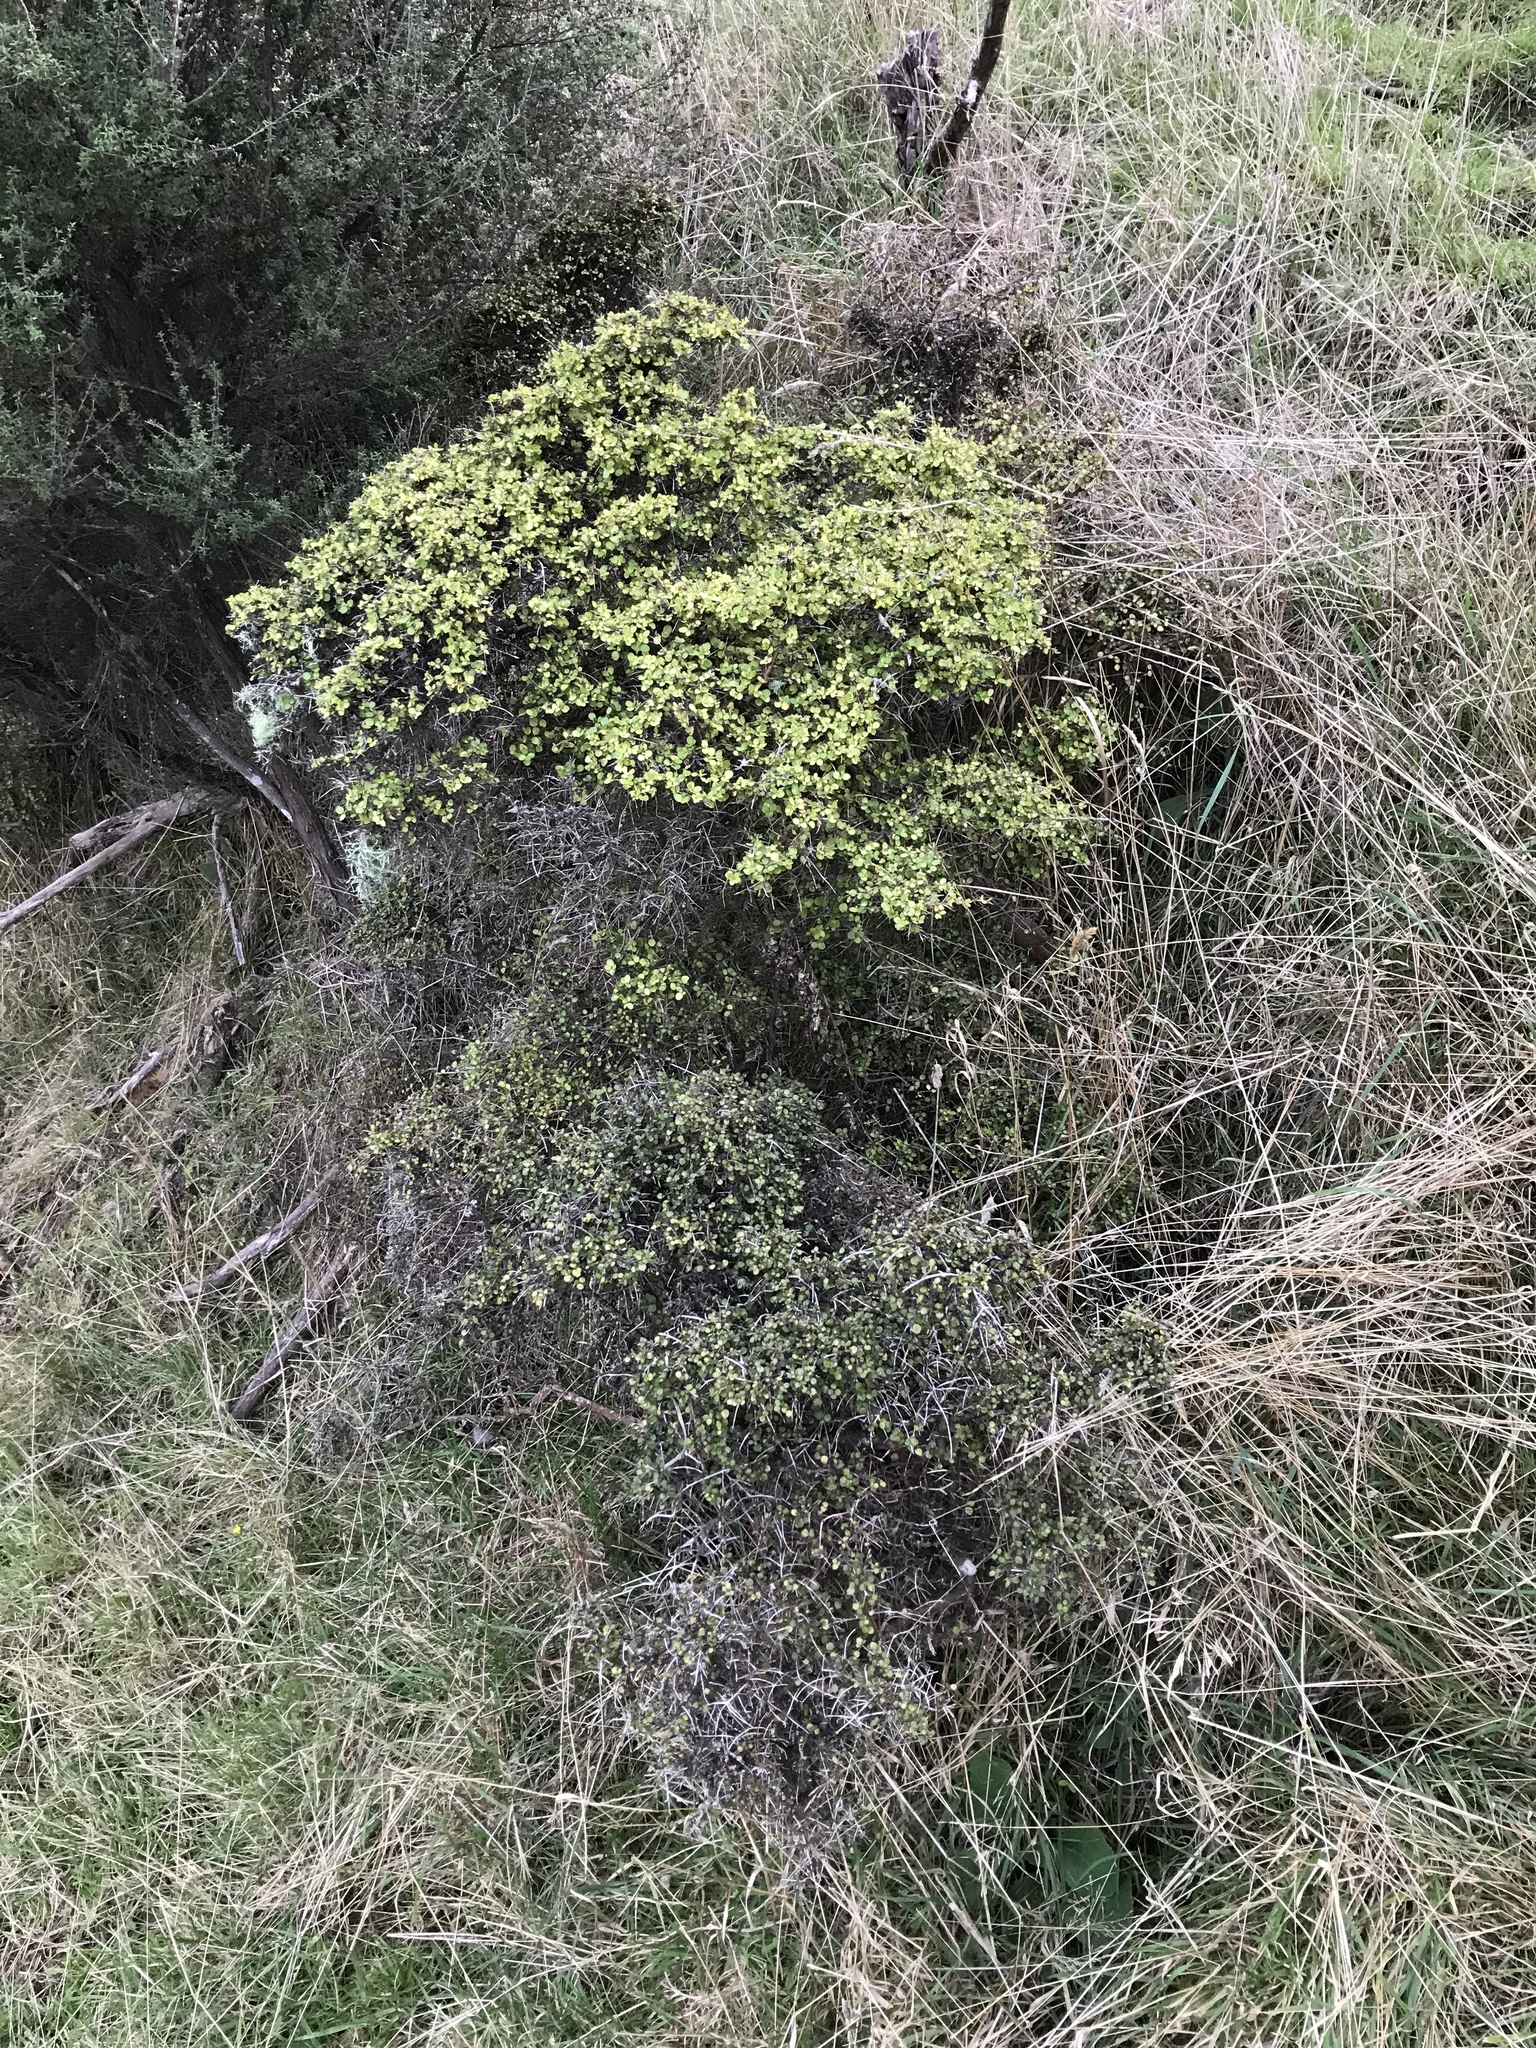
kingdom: Plantae
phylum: Tracheophyta
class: Magnoliopsida
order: Gentianales
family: Rubiaceae
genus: Coprosma
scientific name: Coprosma rhamnoides
